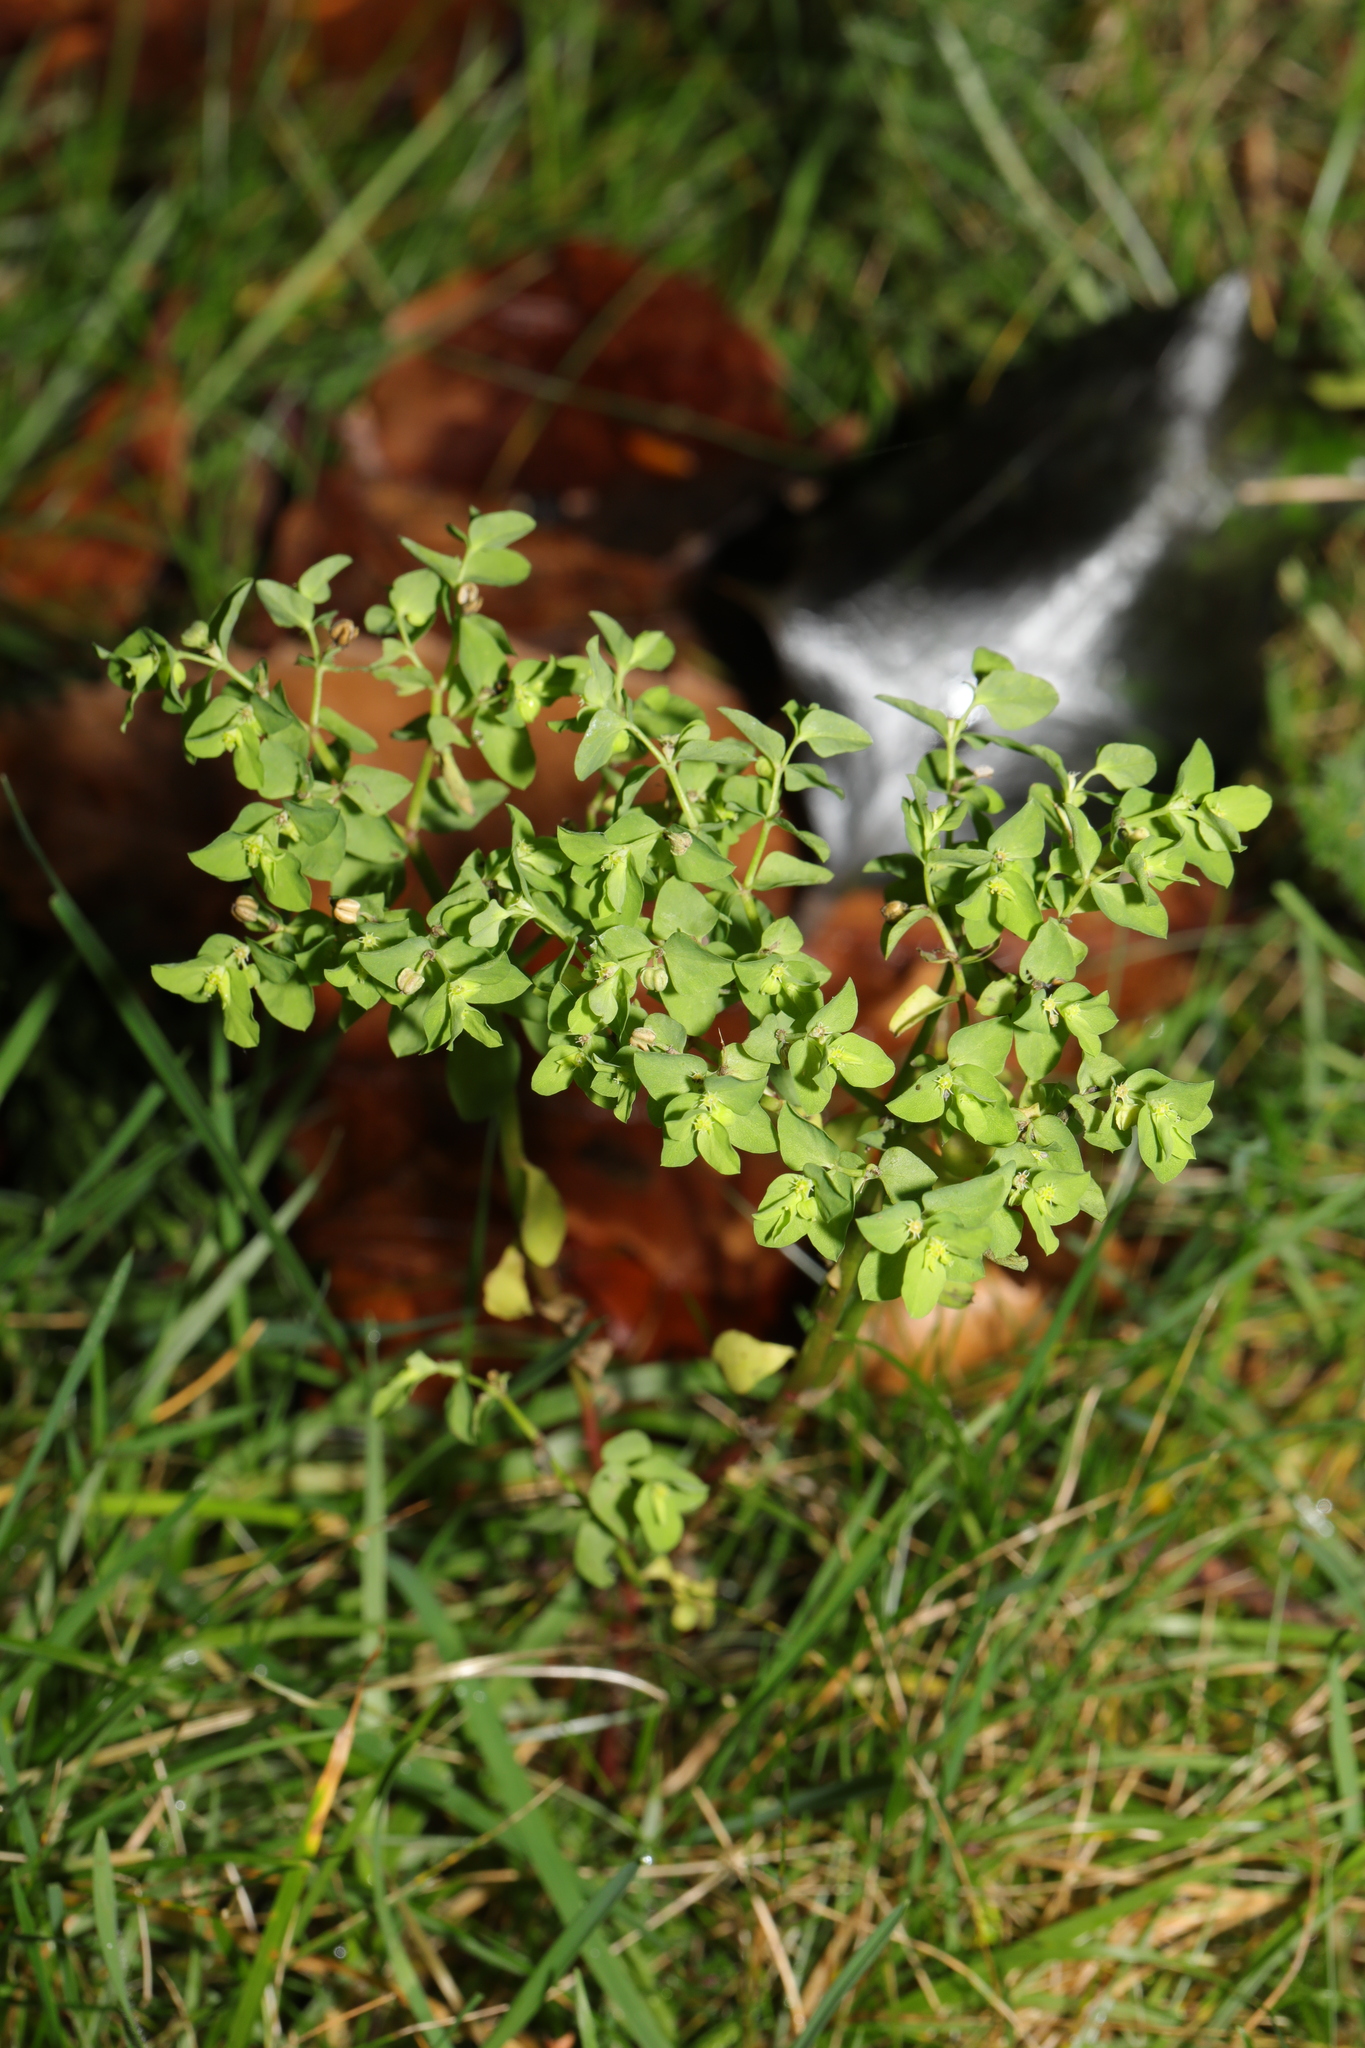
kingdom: Plantae
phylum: Tracheophyta
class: Magnoliopsida
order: Malpighiales
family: Euphorbiaceae
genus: Euphorbia
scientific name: Euphorbia peplus
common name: Petty spurge
